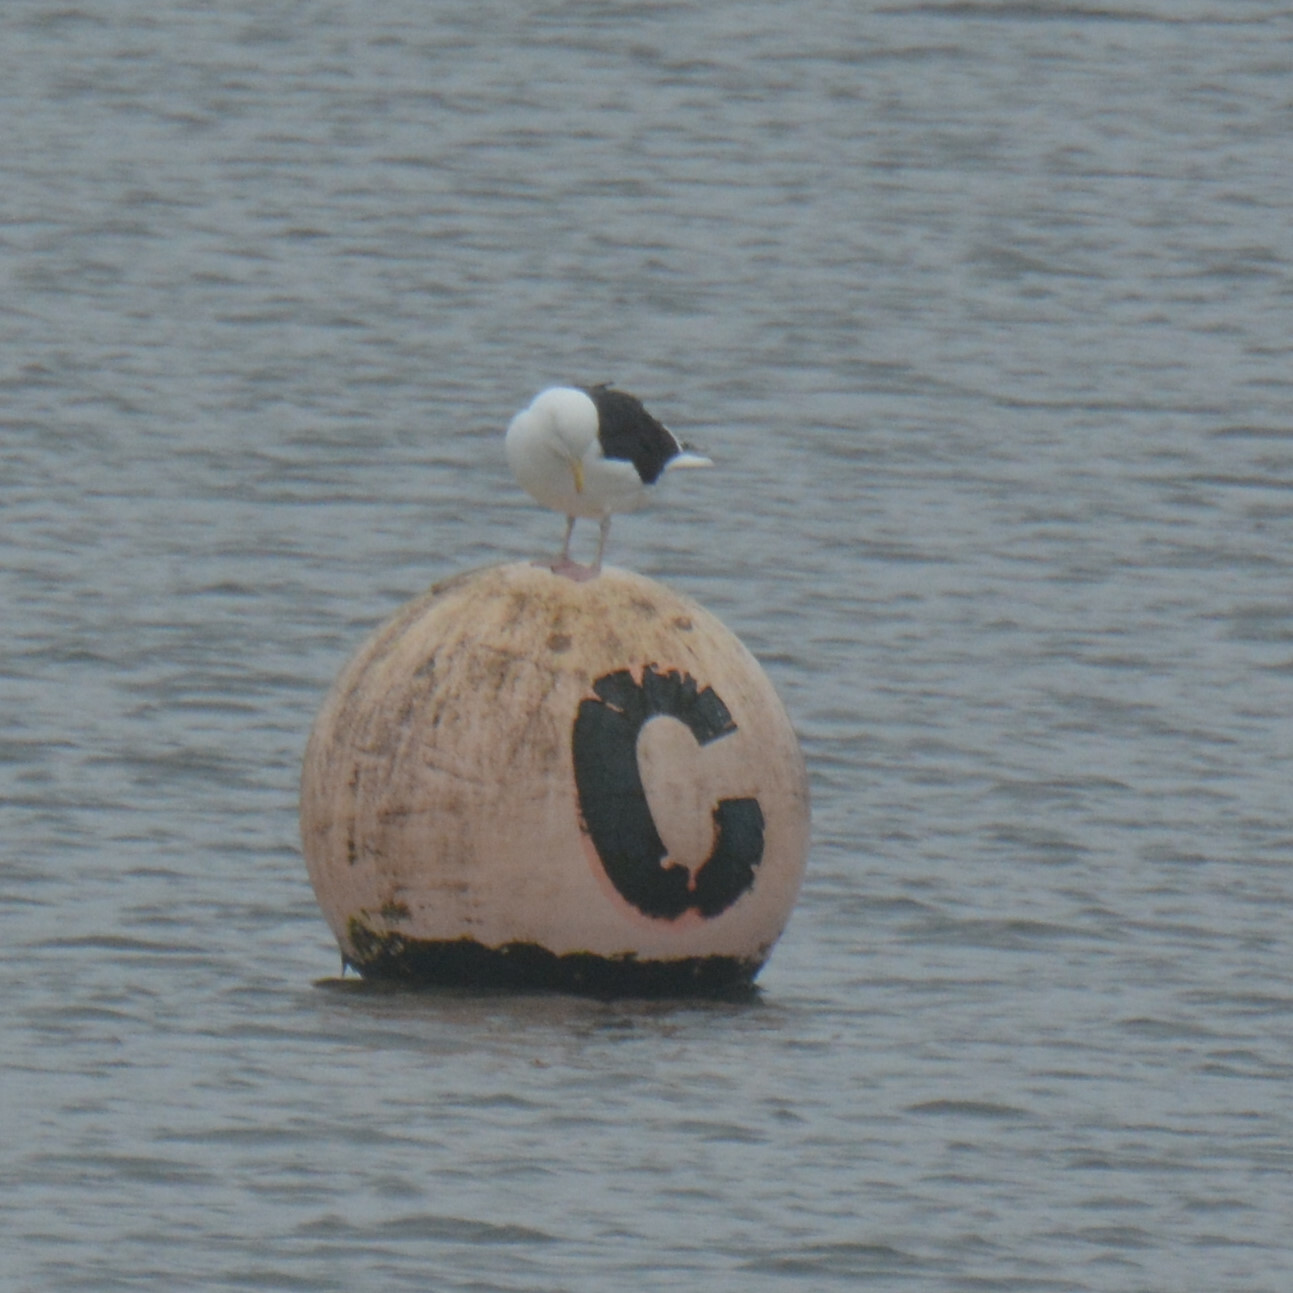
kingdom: Animalia
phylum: Chordata
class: Aves
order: Charadriiformes
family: Laridae
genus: Larus
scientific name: Larus marinus
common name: Great black-backed gull
